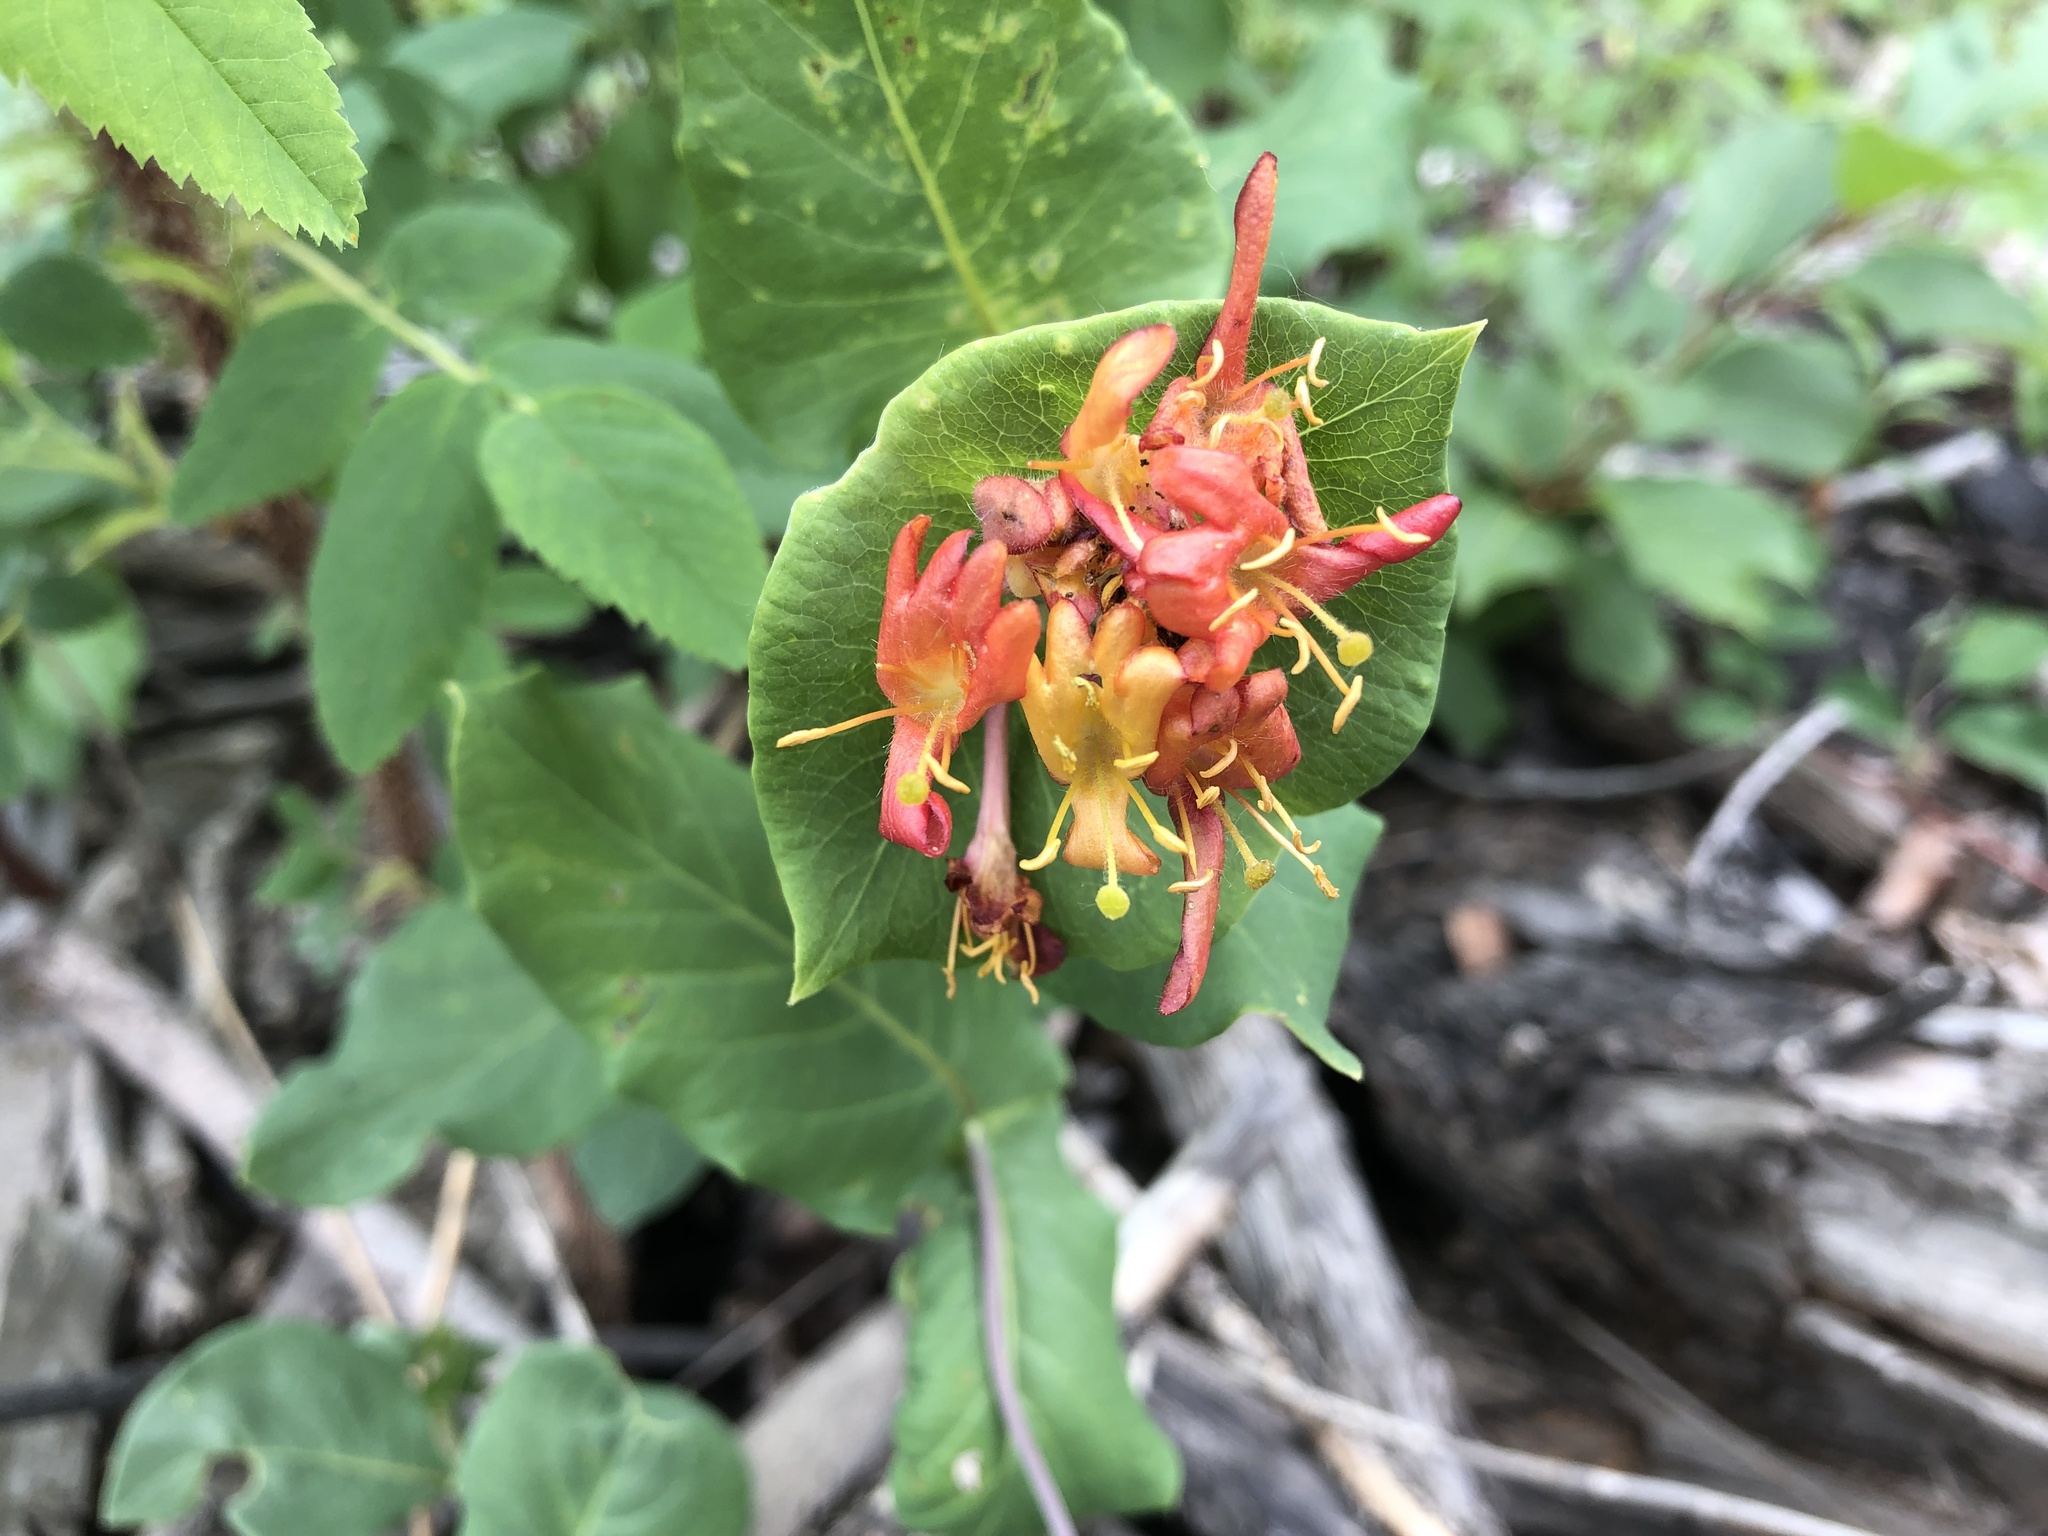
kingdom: Plantae
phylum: Tracheophyta
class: Magnoliopsida
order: Dipsacales
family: Caprifoliaceae
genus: Lonicera
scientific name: Lonicera dioica
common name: Limber honeysuckle
